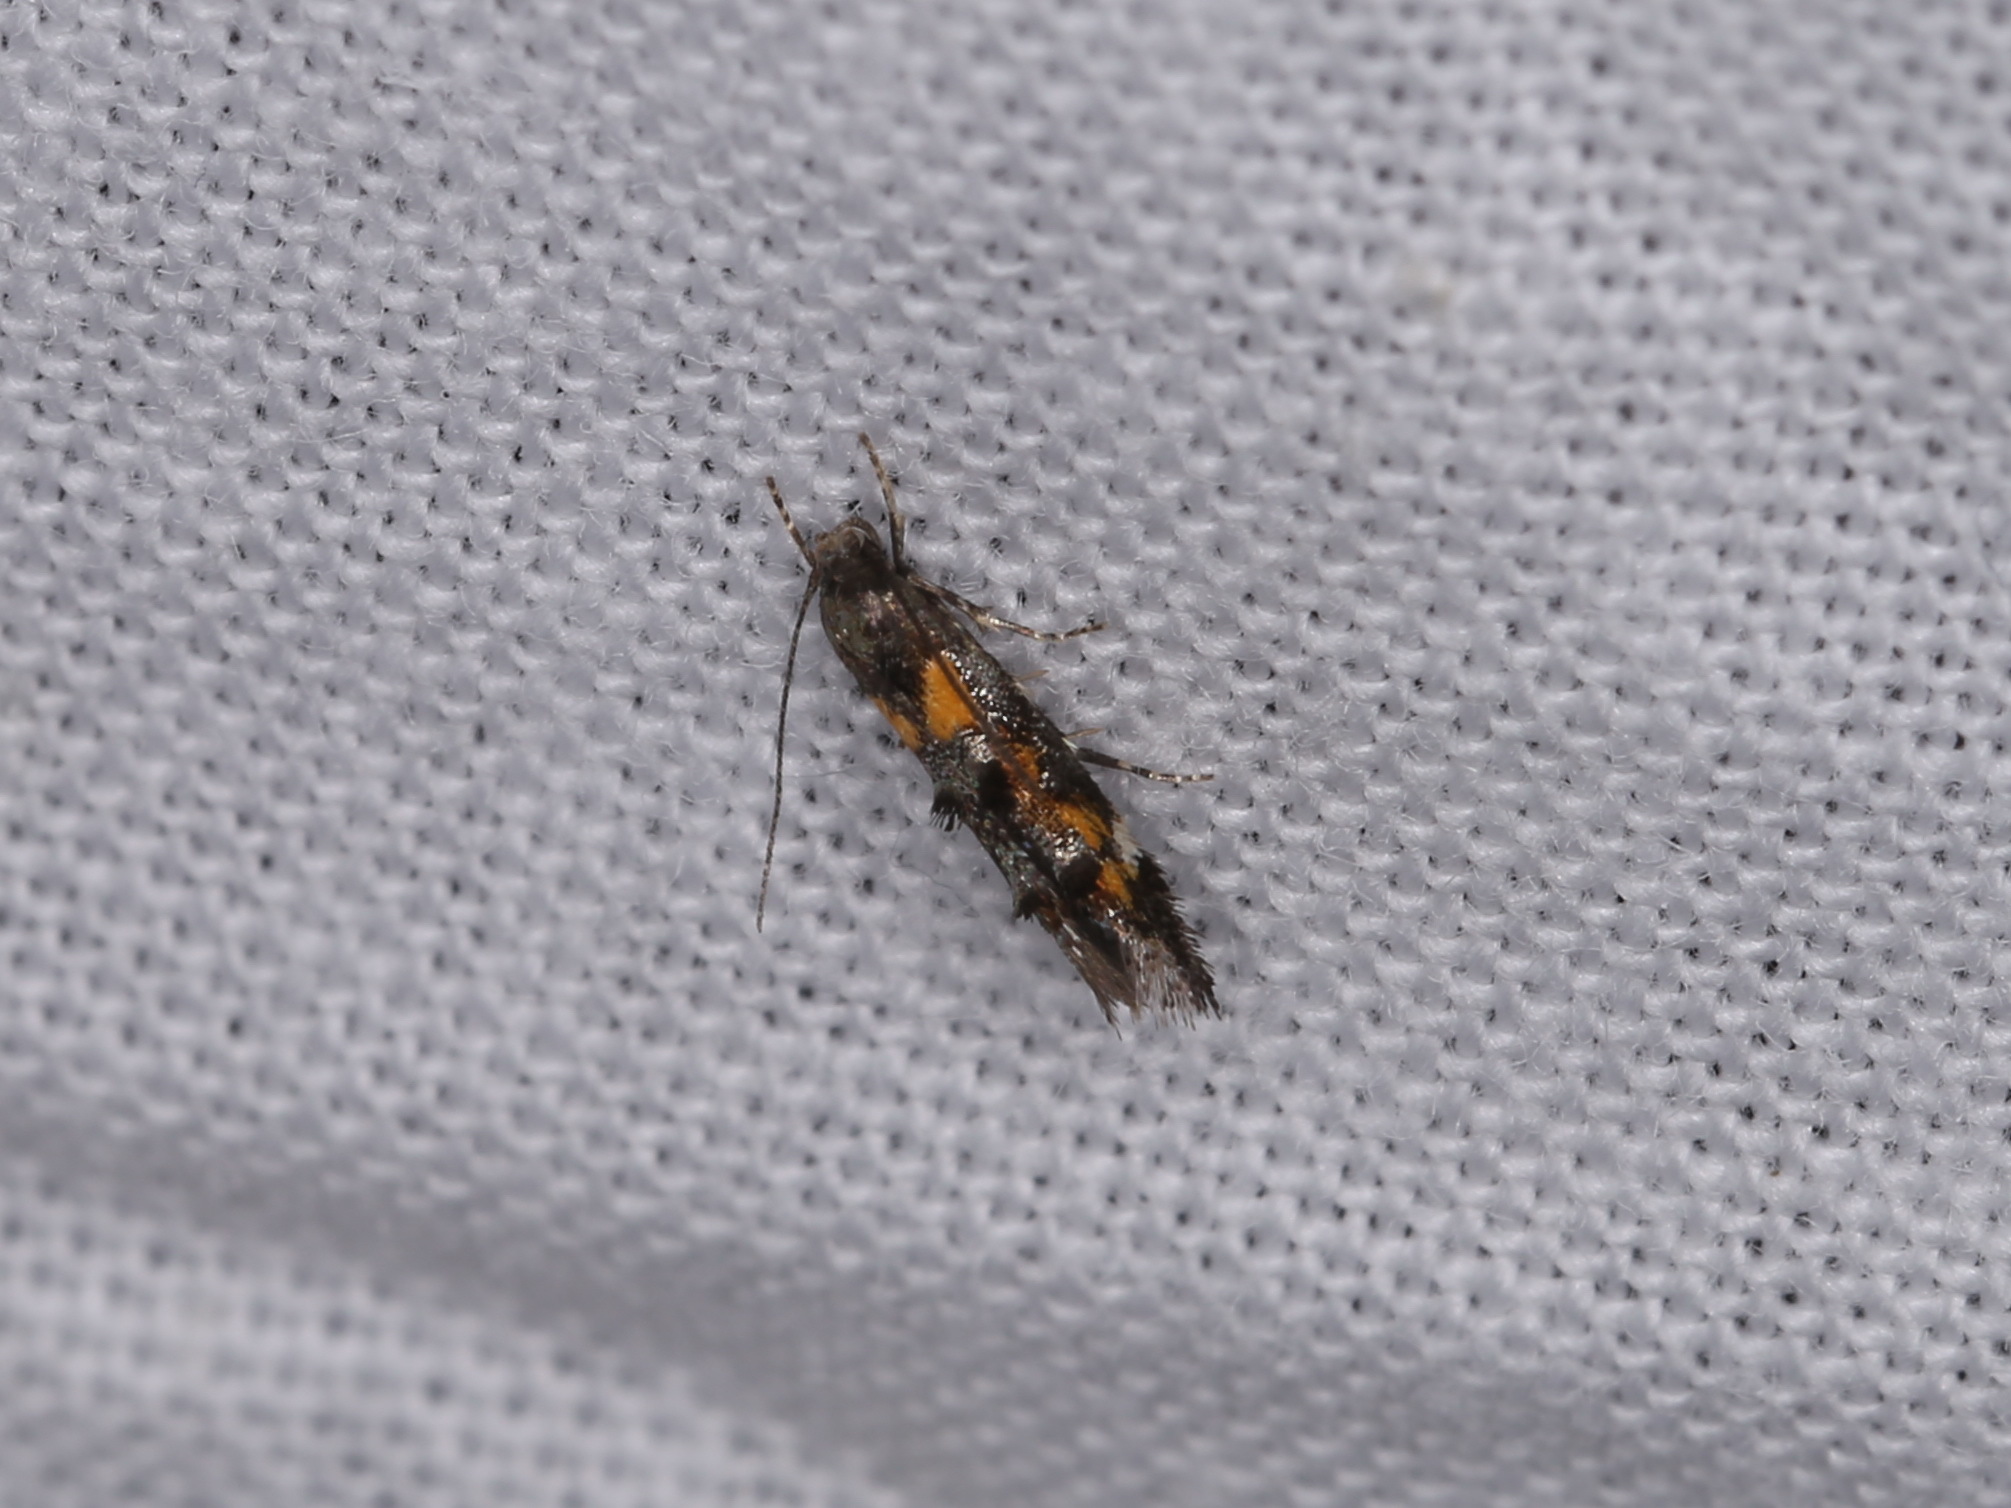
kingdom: Animalia
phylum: Arthropoda
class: Insecta
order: Lepidoptera
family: Momphidae
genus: Mompha
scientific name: Mompha raschkiella
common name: Little cosmet
